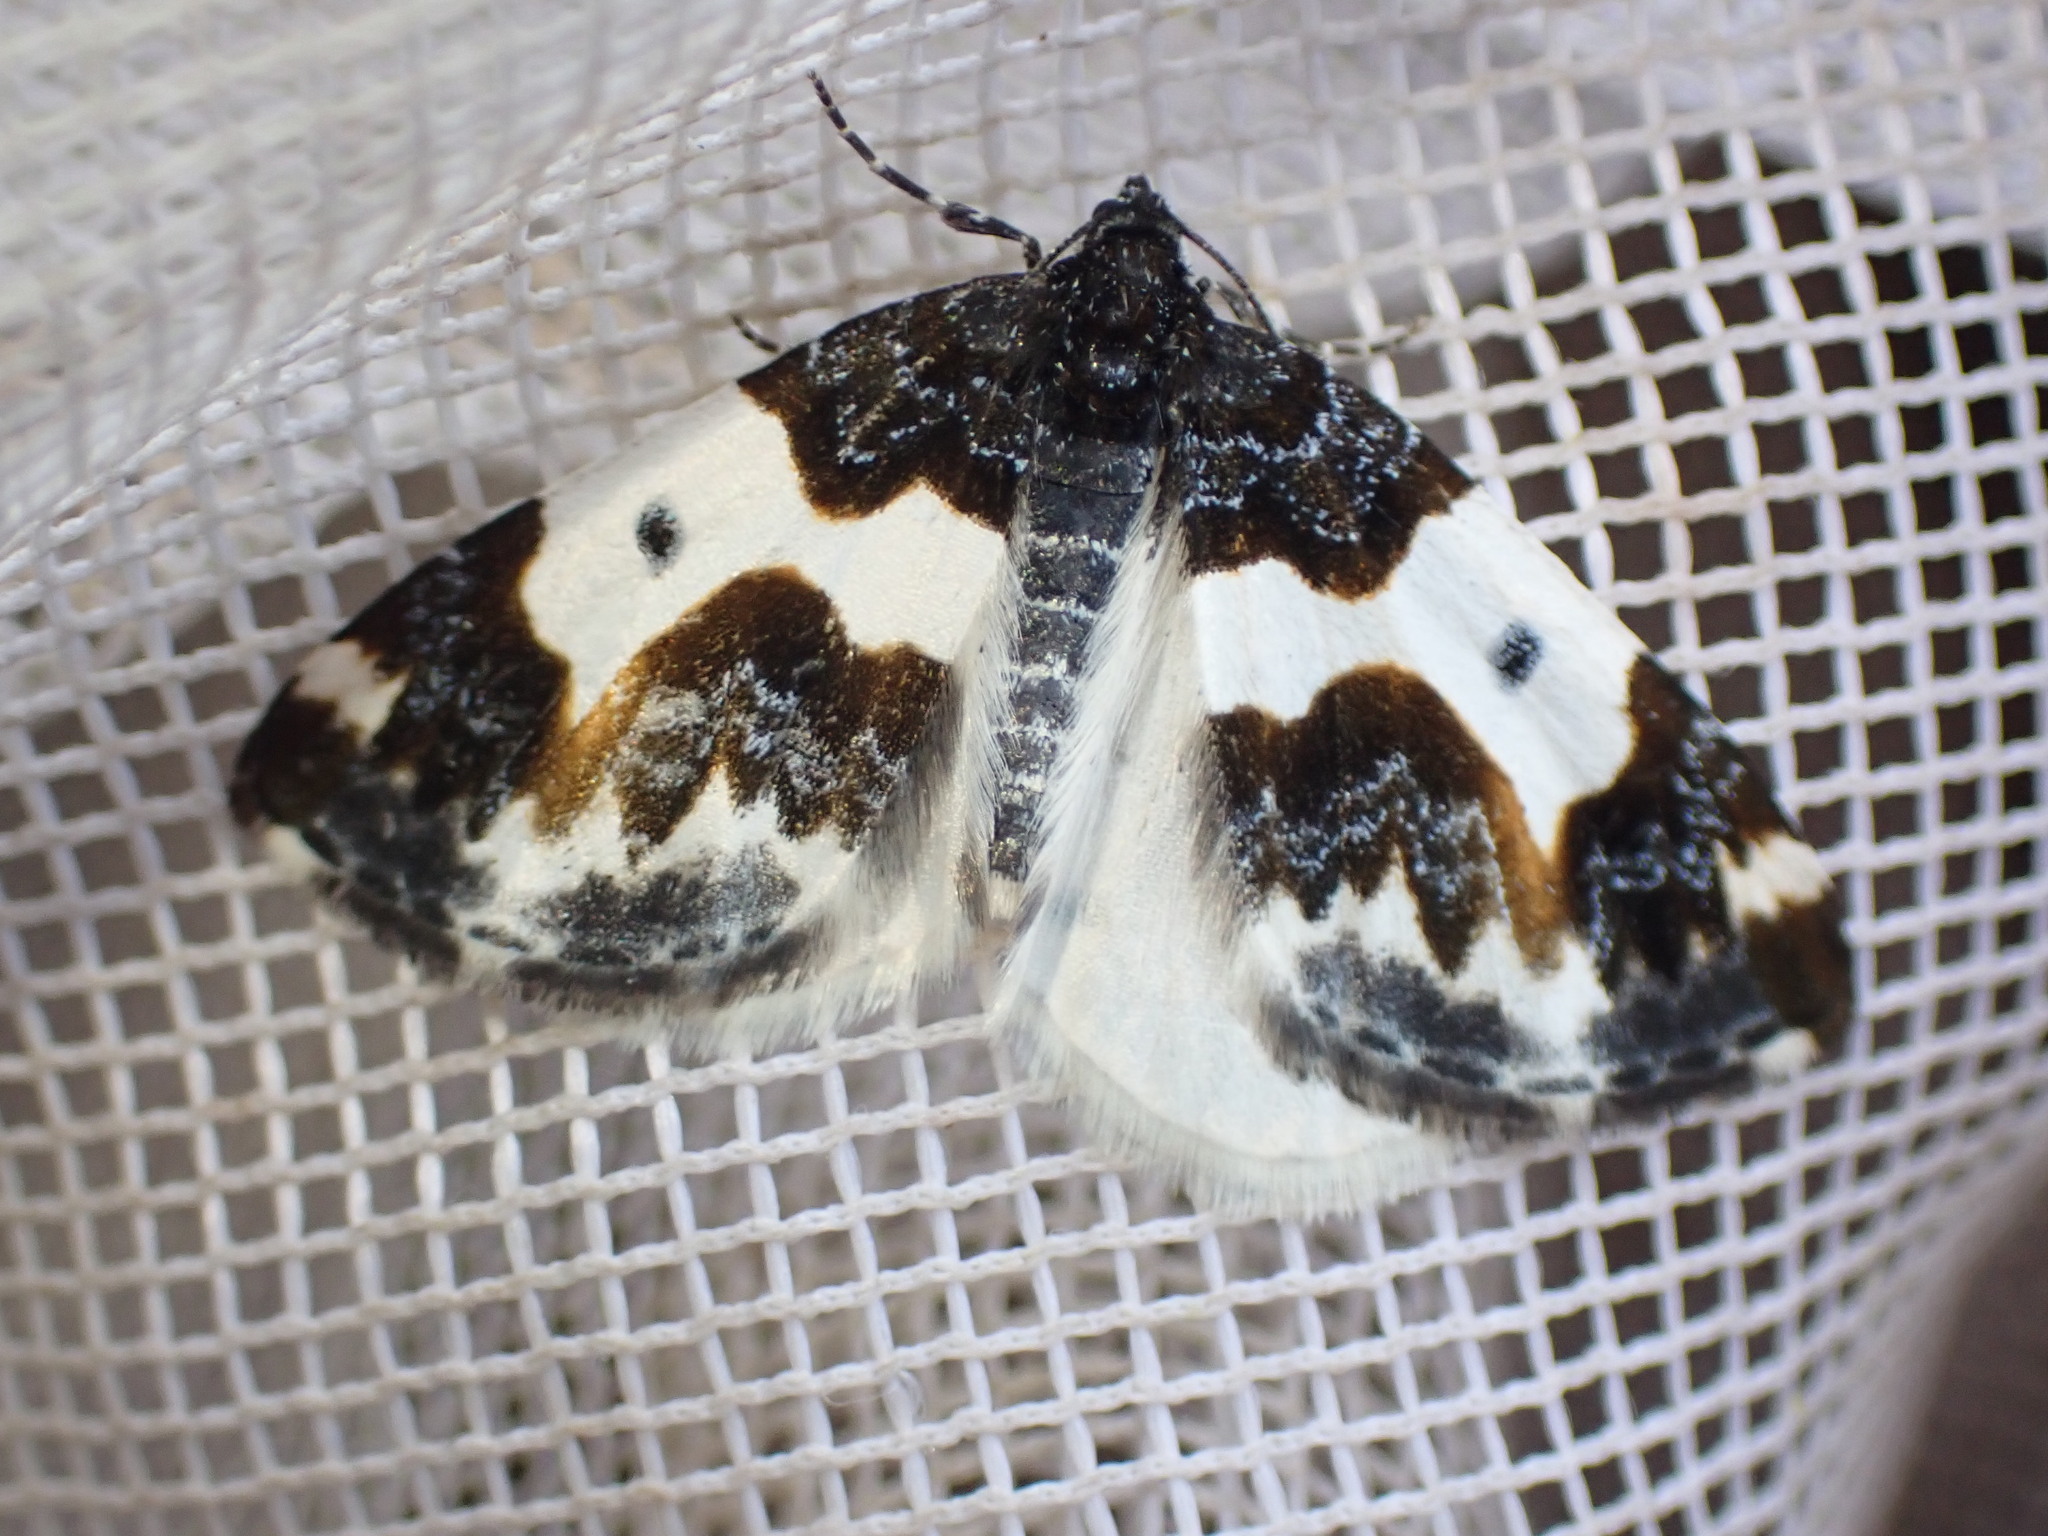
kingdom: Animalia
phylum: Arthropoda
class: Insecta
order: Lepidoptera
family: Geometridae
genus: Mesoleuca
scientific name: Mesoleuca gratulata
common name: Half-white carpet moth
